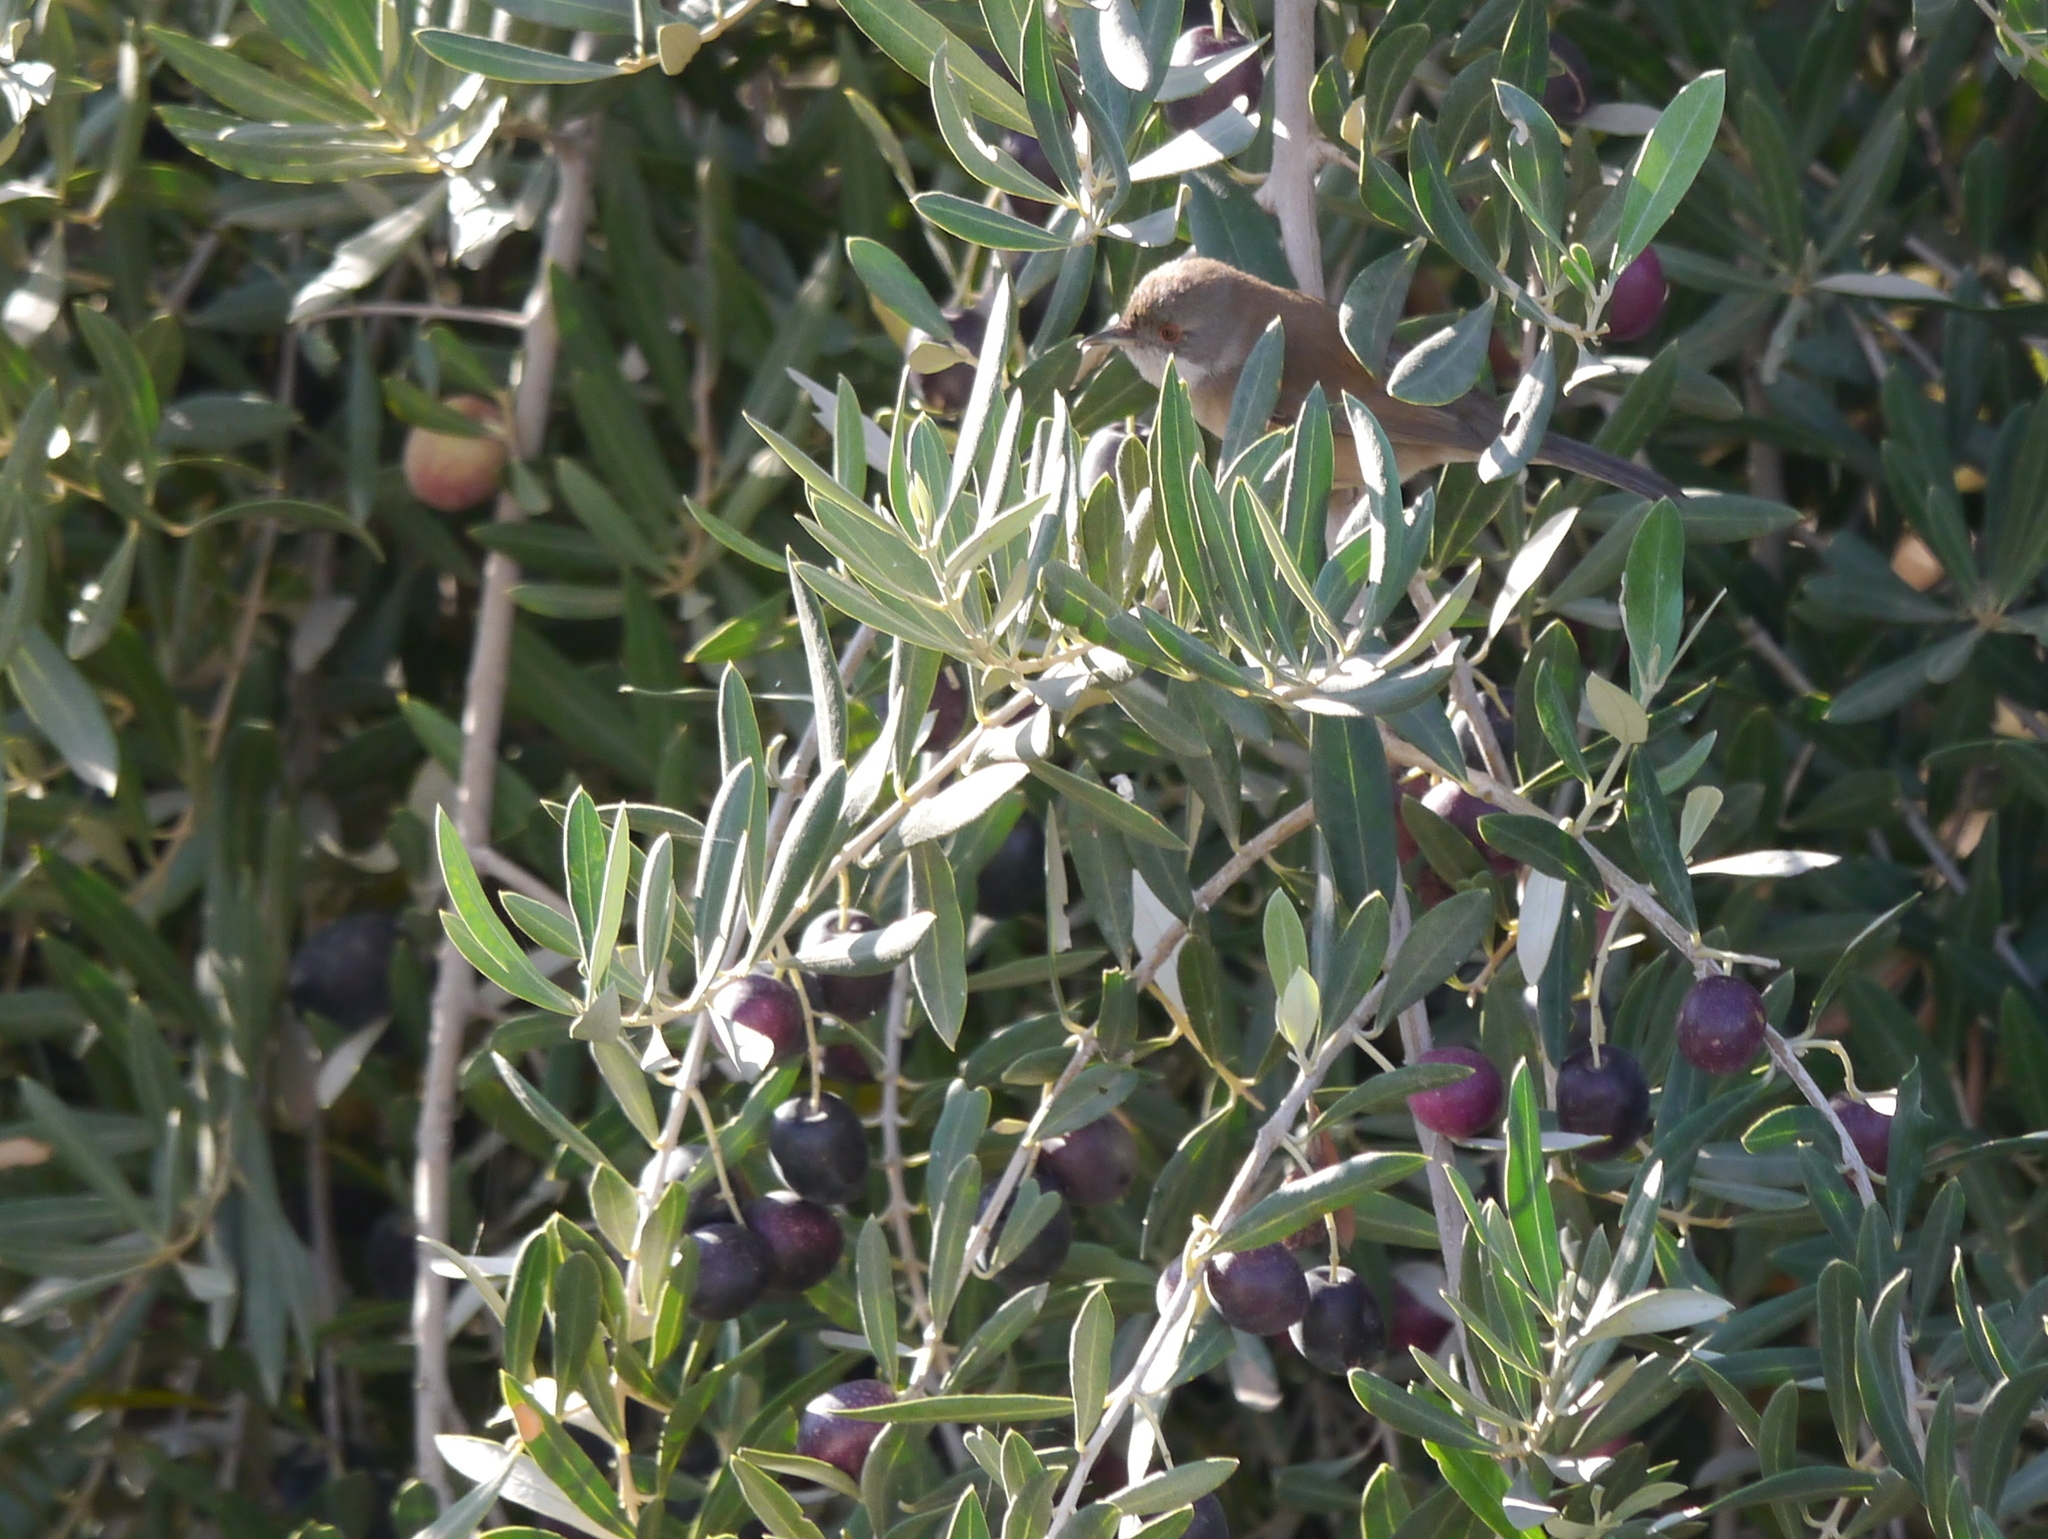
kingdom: Animalia
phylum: Chordata
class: Aves
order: Passeriformes
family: Sylviidae
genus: Curruca
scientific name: Curruca melanocephala
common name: Sardinian warbler
